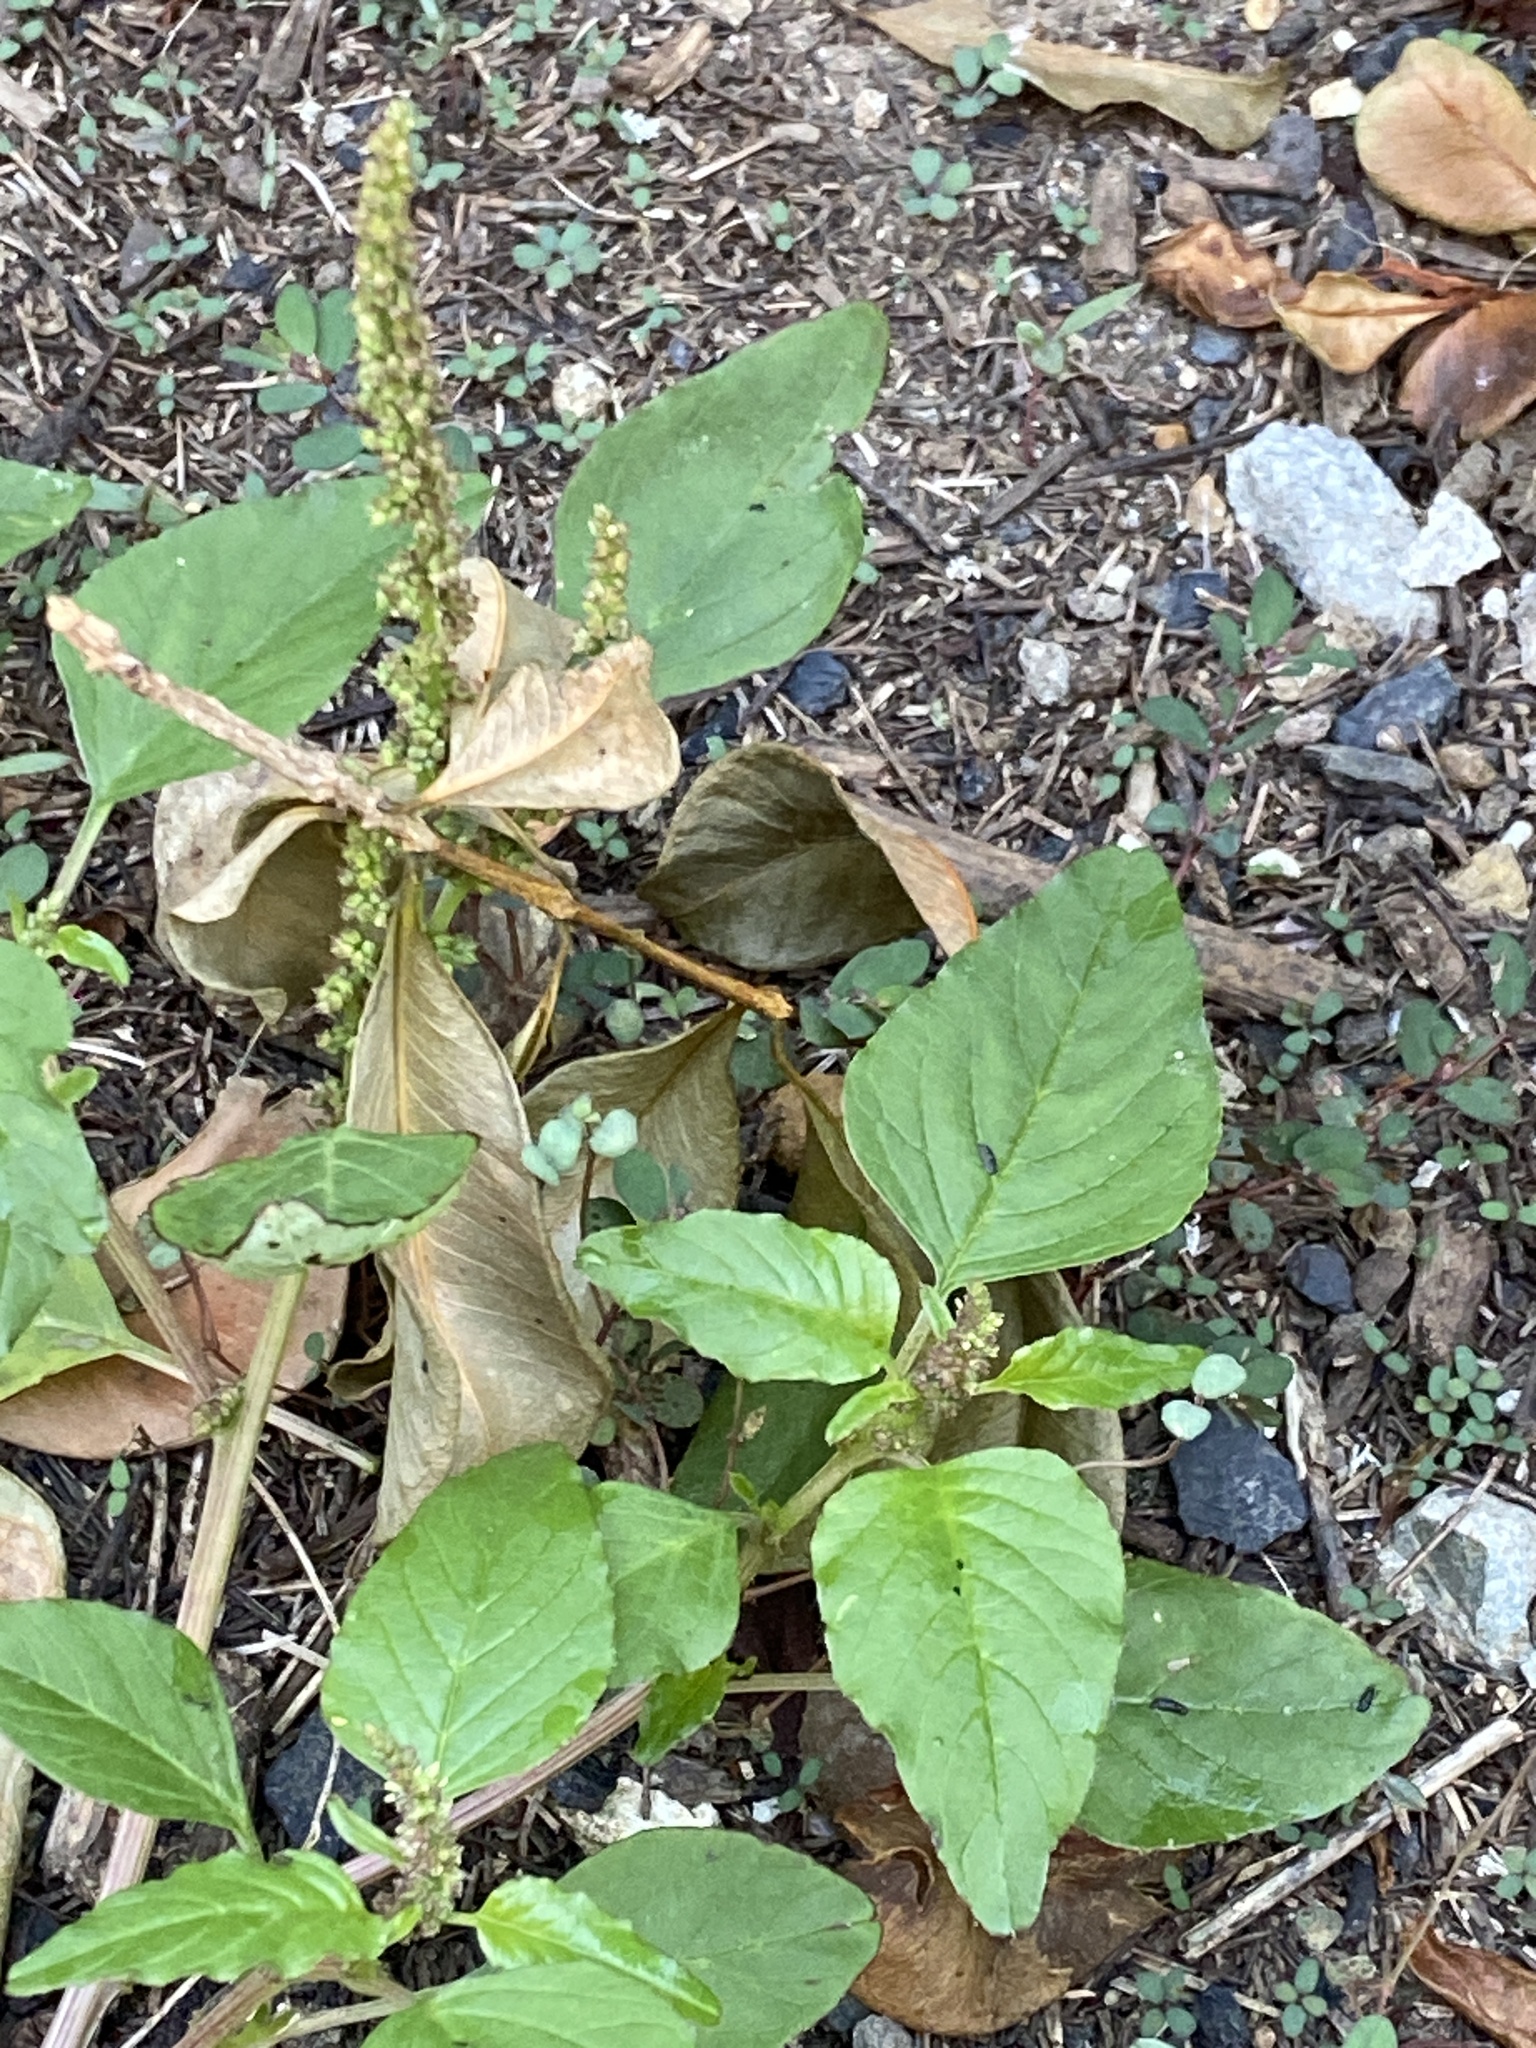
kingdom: Plantae
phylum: Tracheophyta
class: Magnoliopsida
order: Caryophyllales
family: Amaranthaceae
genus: Amaranthus
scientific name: Amaranthus viridis
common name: Slender amaranth
